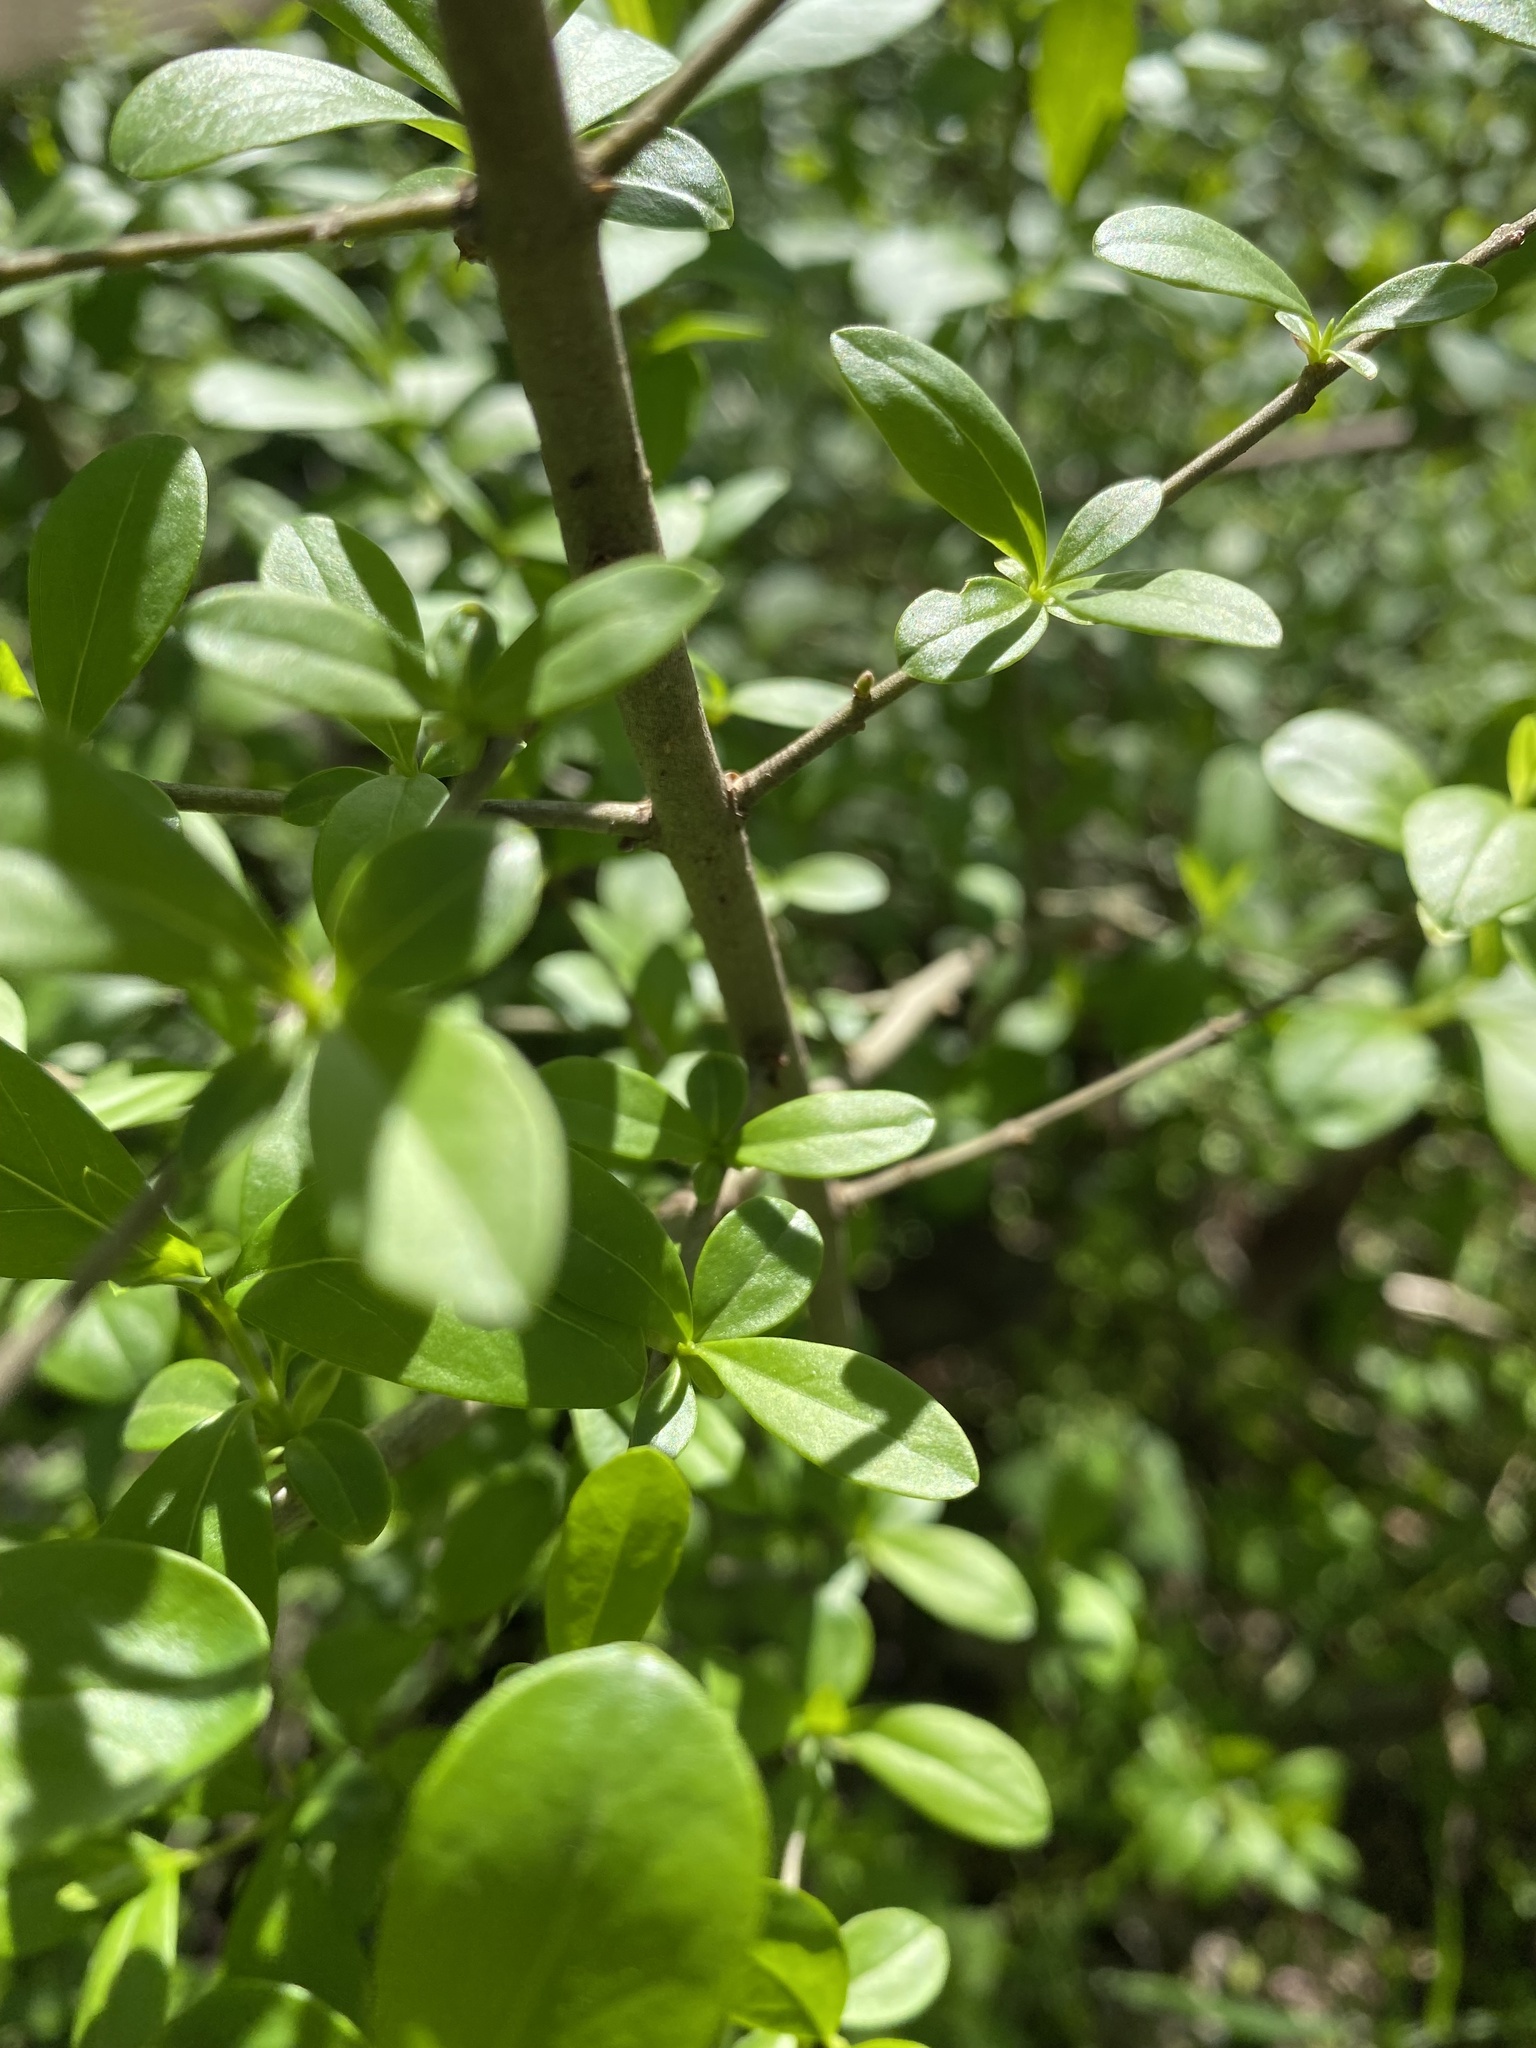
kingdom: Plantae
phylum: Tracheophyta
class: Magnoliopsida
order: Lamiales
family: Oleaceae
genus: Ligustrum
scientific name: Ligustrum vulgare
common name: Wild privet
